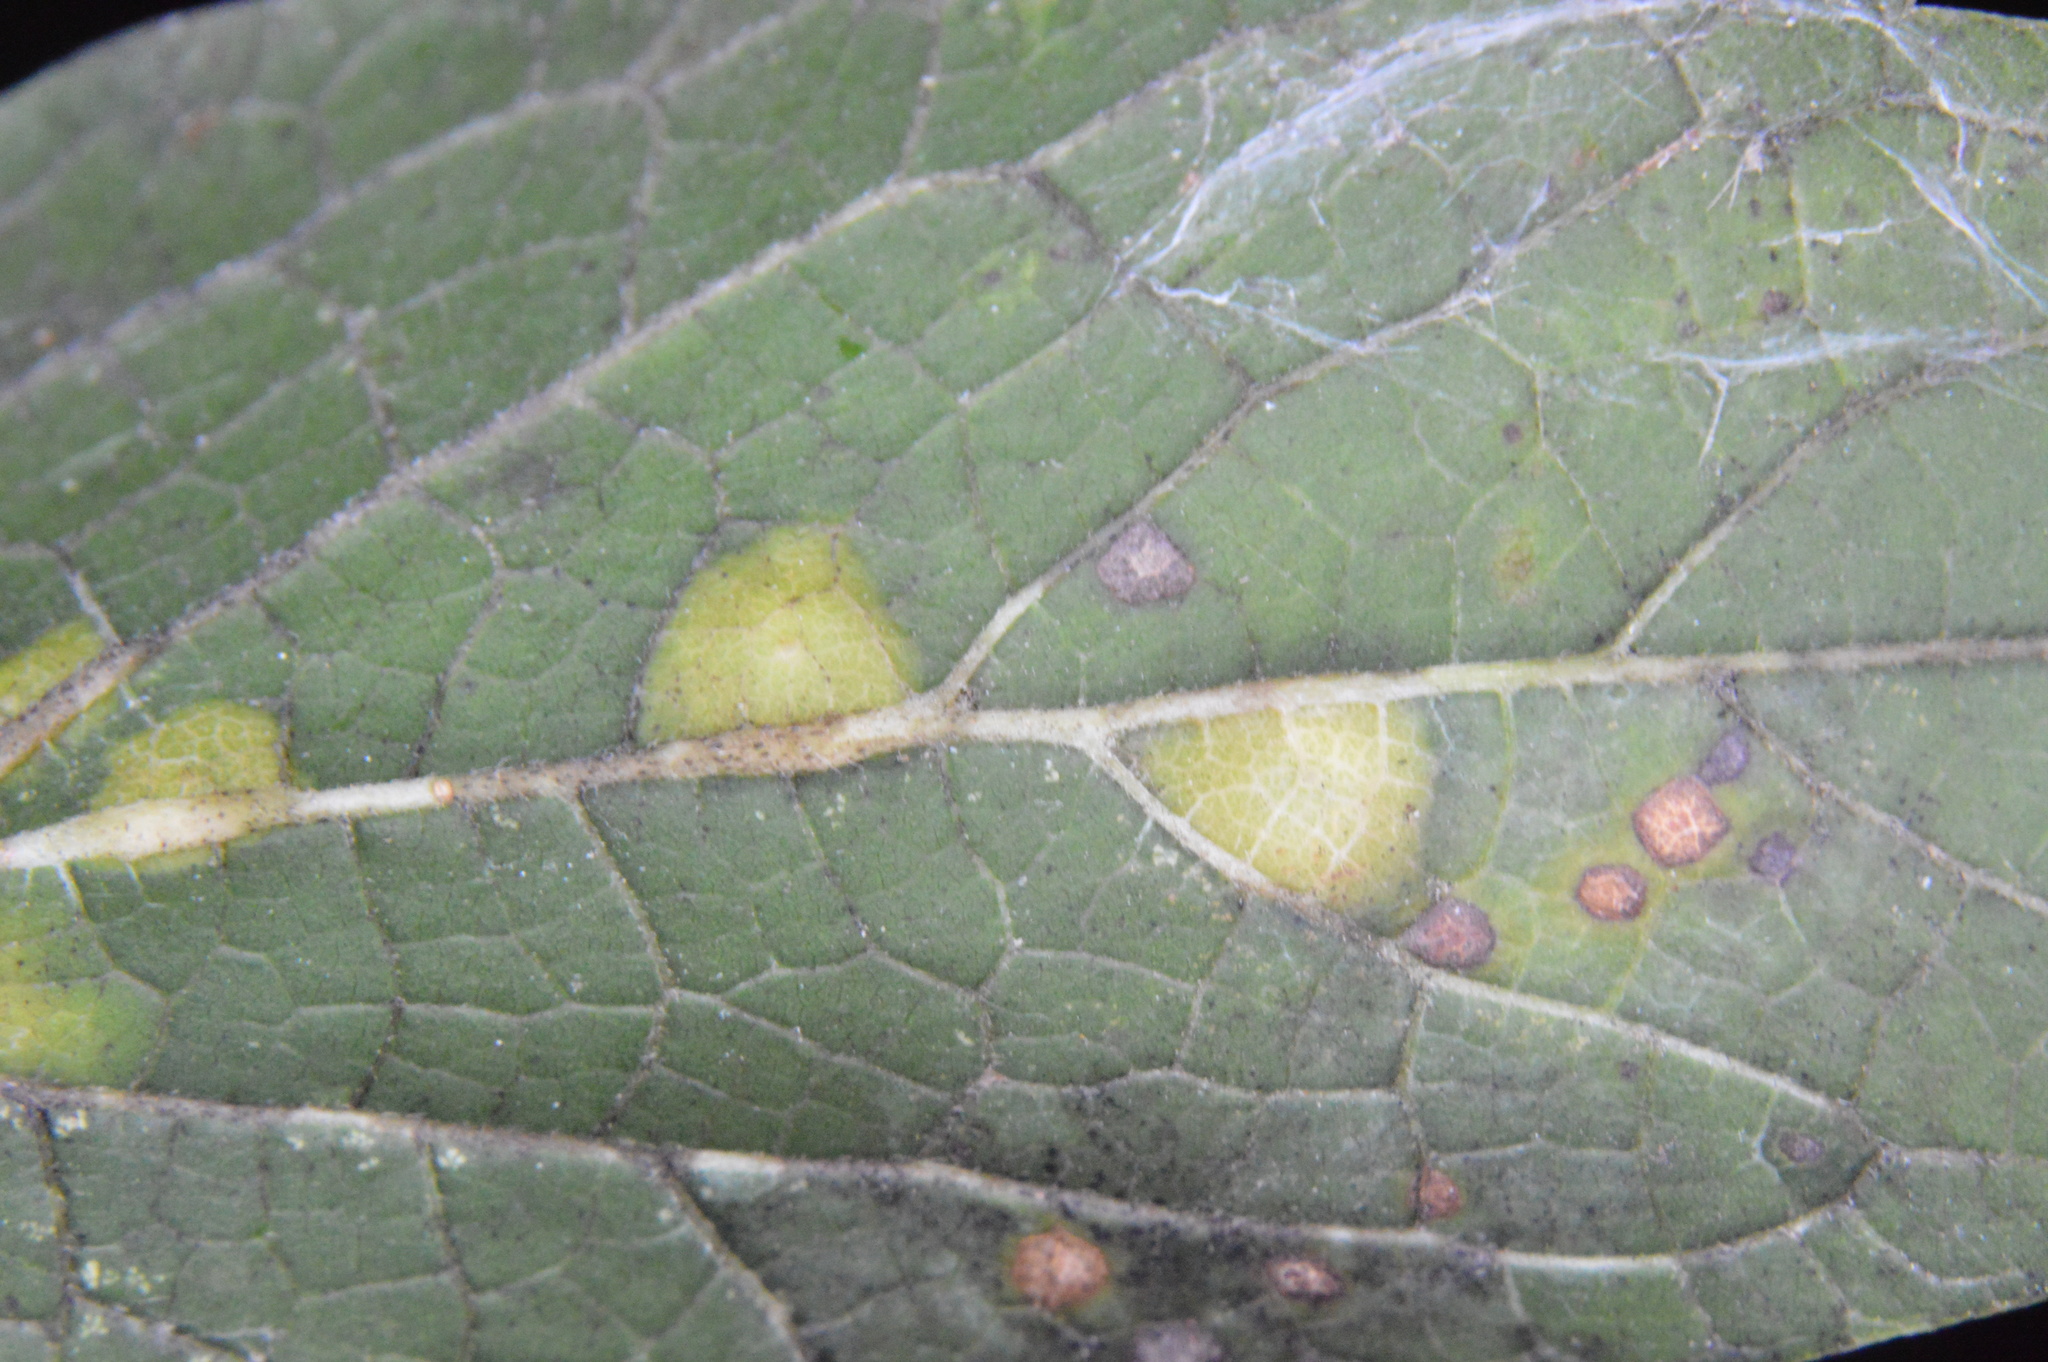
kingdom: Animalia
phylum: Arthropoda
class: Insecta
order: Hemiptera
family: Aphalaridae
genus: Pachypsylla
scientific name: Pachypsylla celtidisvesicula
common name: Hackberry blister gall psyllid
